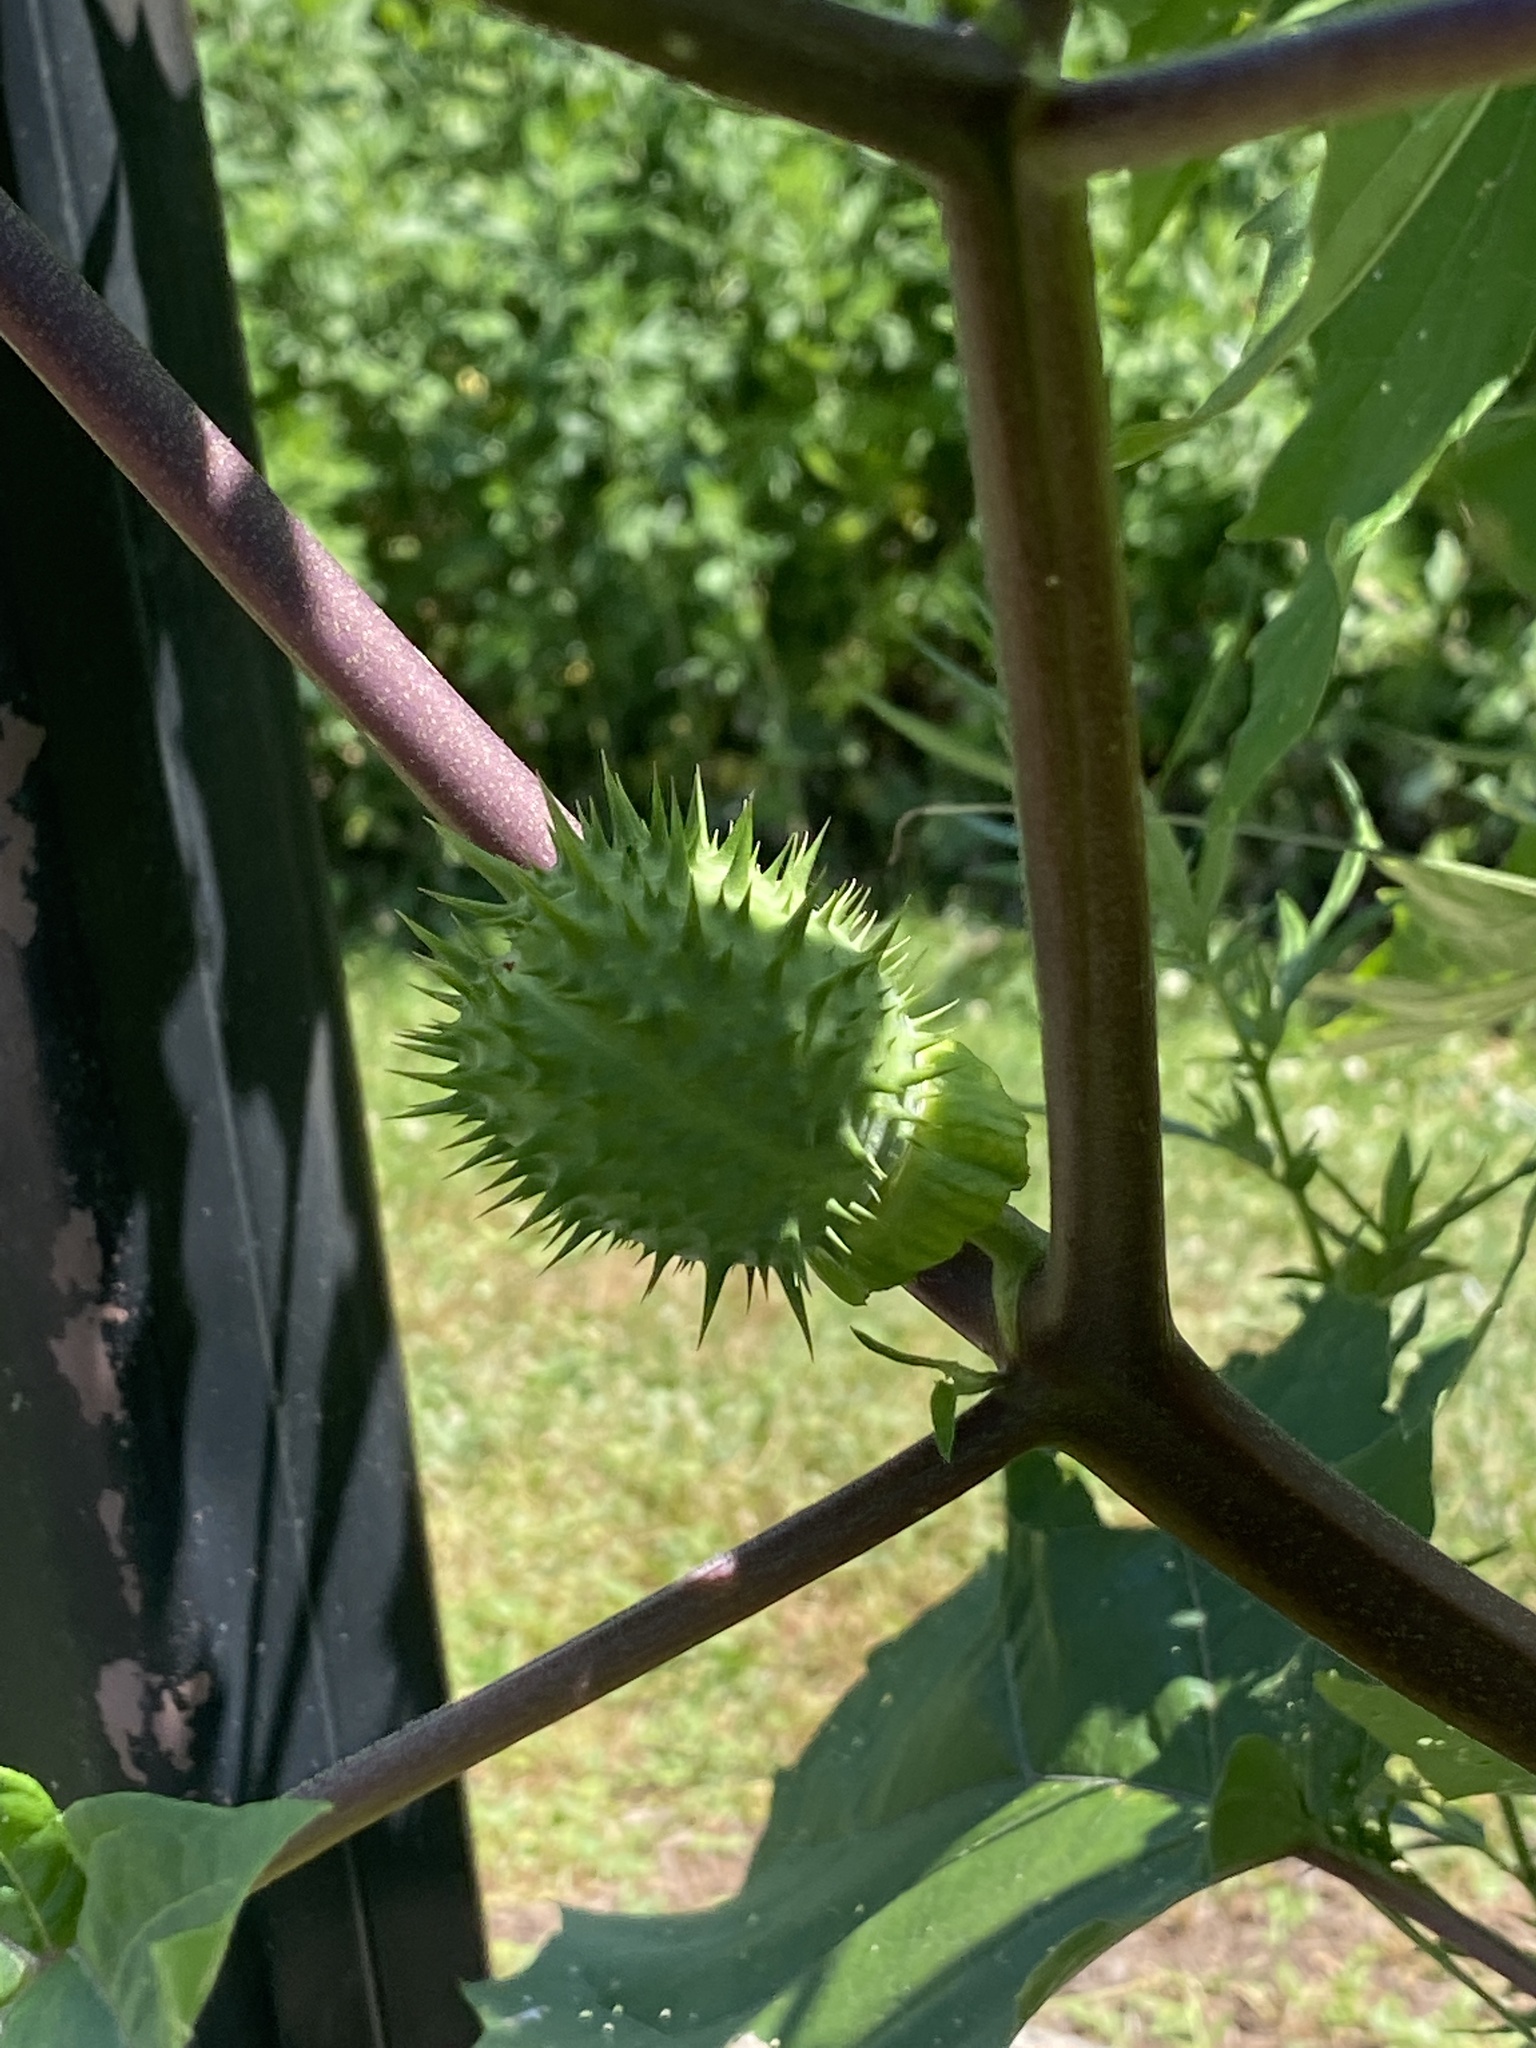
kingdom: Plantae
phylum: Tracheophyta
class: Magnoliopsida
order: Solanales
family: Solanaceae
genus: Datura
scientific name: Datura stramonium
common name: Thorn-apple
